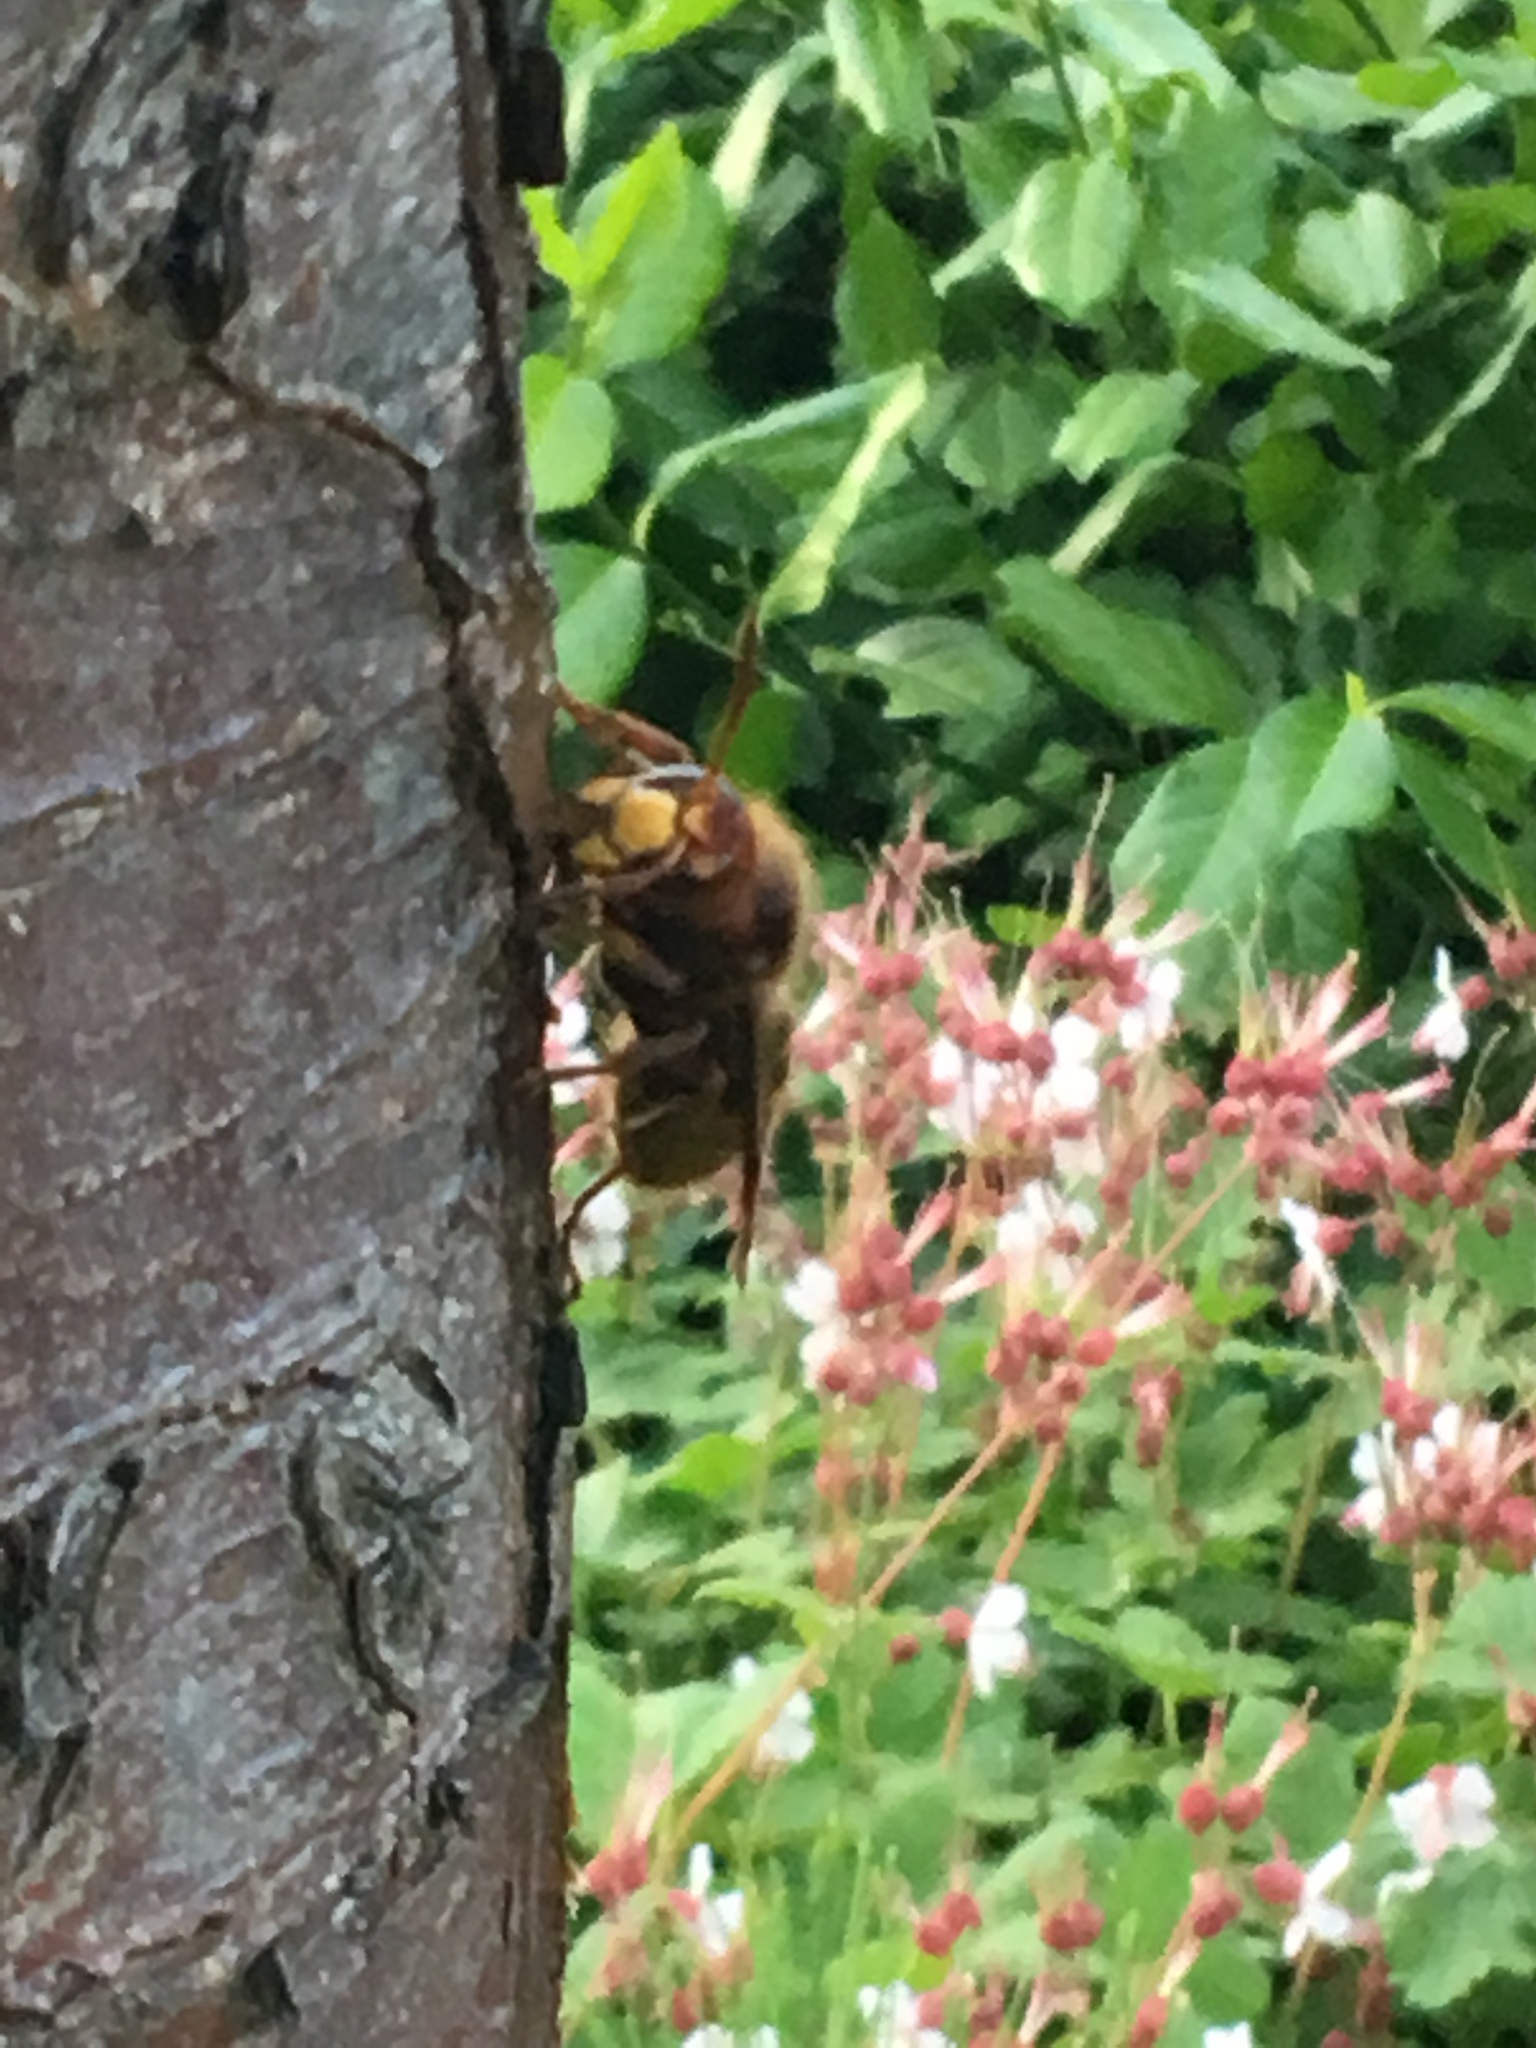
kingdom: Animalia
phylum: Arthropoda
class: Insecta
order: Hymenoptera
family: Vespidae
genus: Vespa
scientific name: Vespa crabro
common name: Hornet
